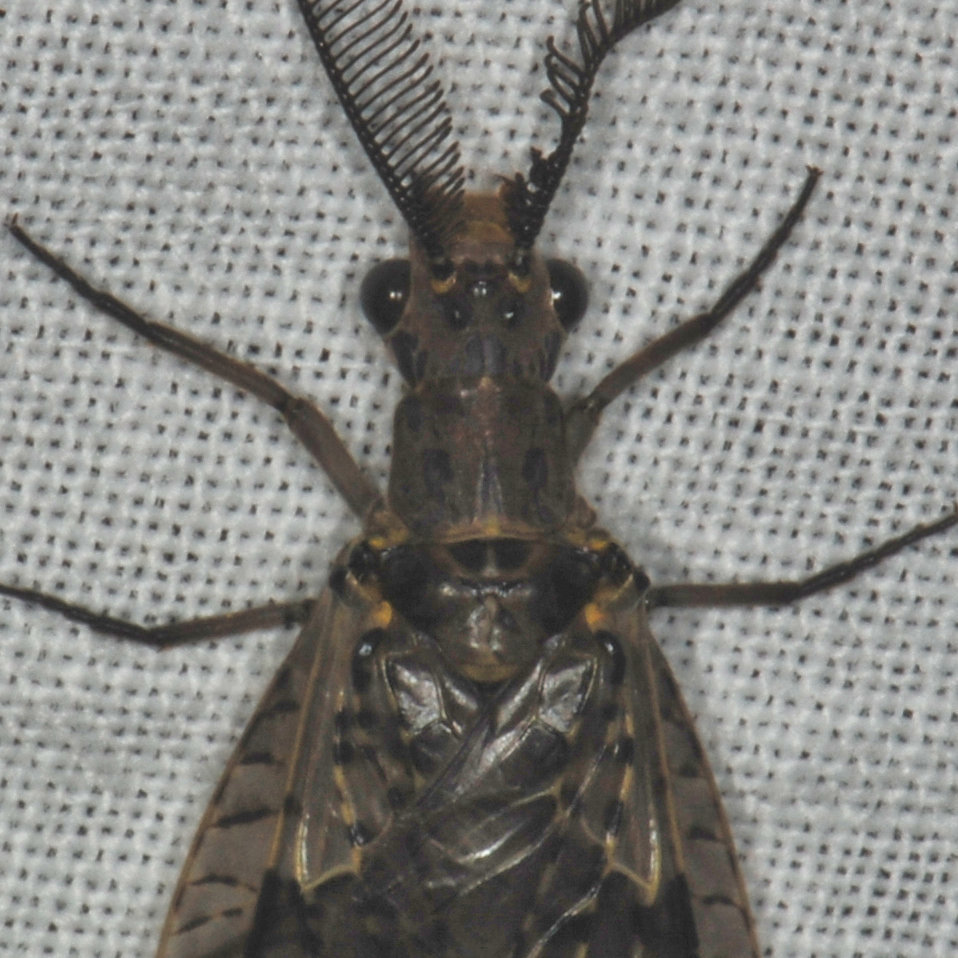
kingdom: Animalia
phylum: Arthropoda
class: Insecta
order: Megaloptera
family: Corydalidae
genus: Chauliodes
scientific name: Chauliodes rastricornis
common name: Spring fishfly
